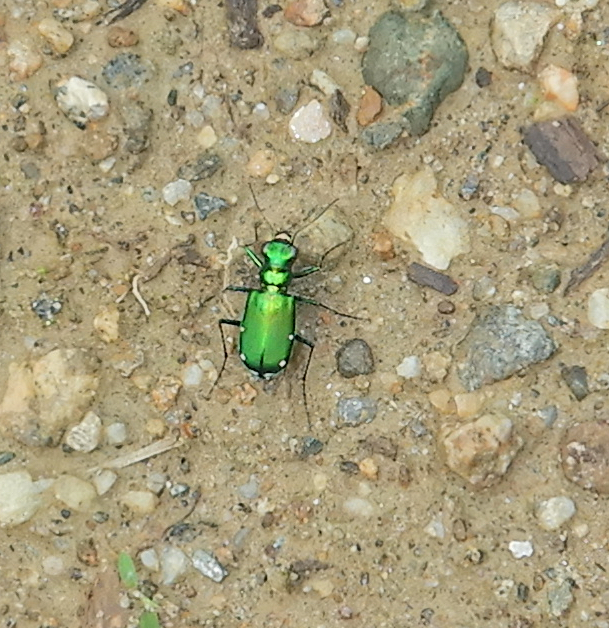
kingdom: Animalia
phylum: Arthropoda
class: Insecta
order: Coleoptera
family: Carabidae
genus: Cicindela
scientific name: Cicindela sexguttata
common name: Six-spotted tiger beetle
